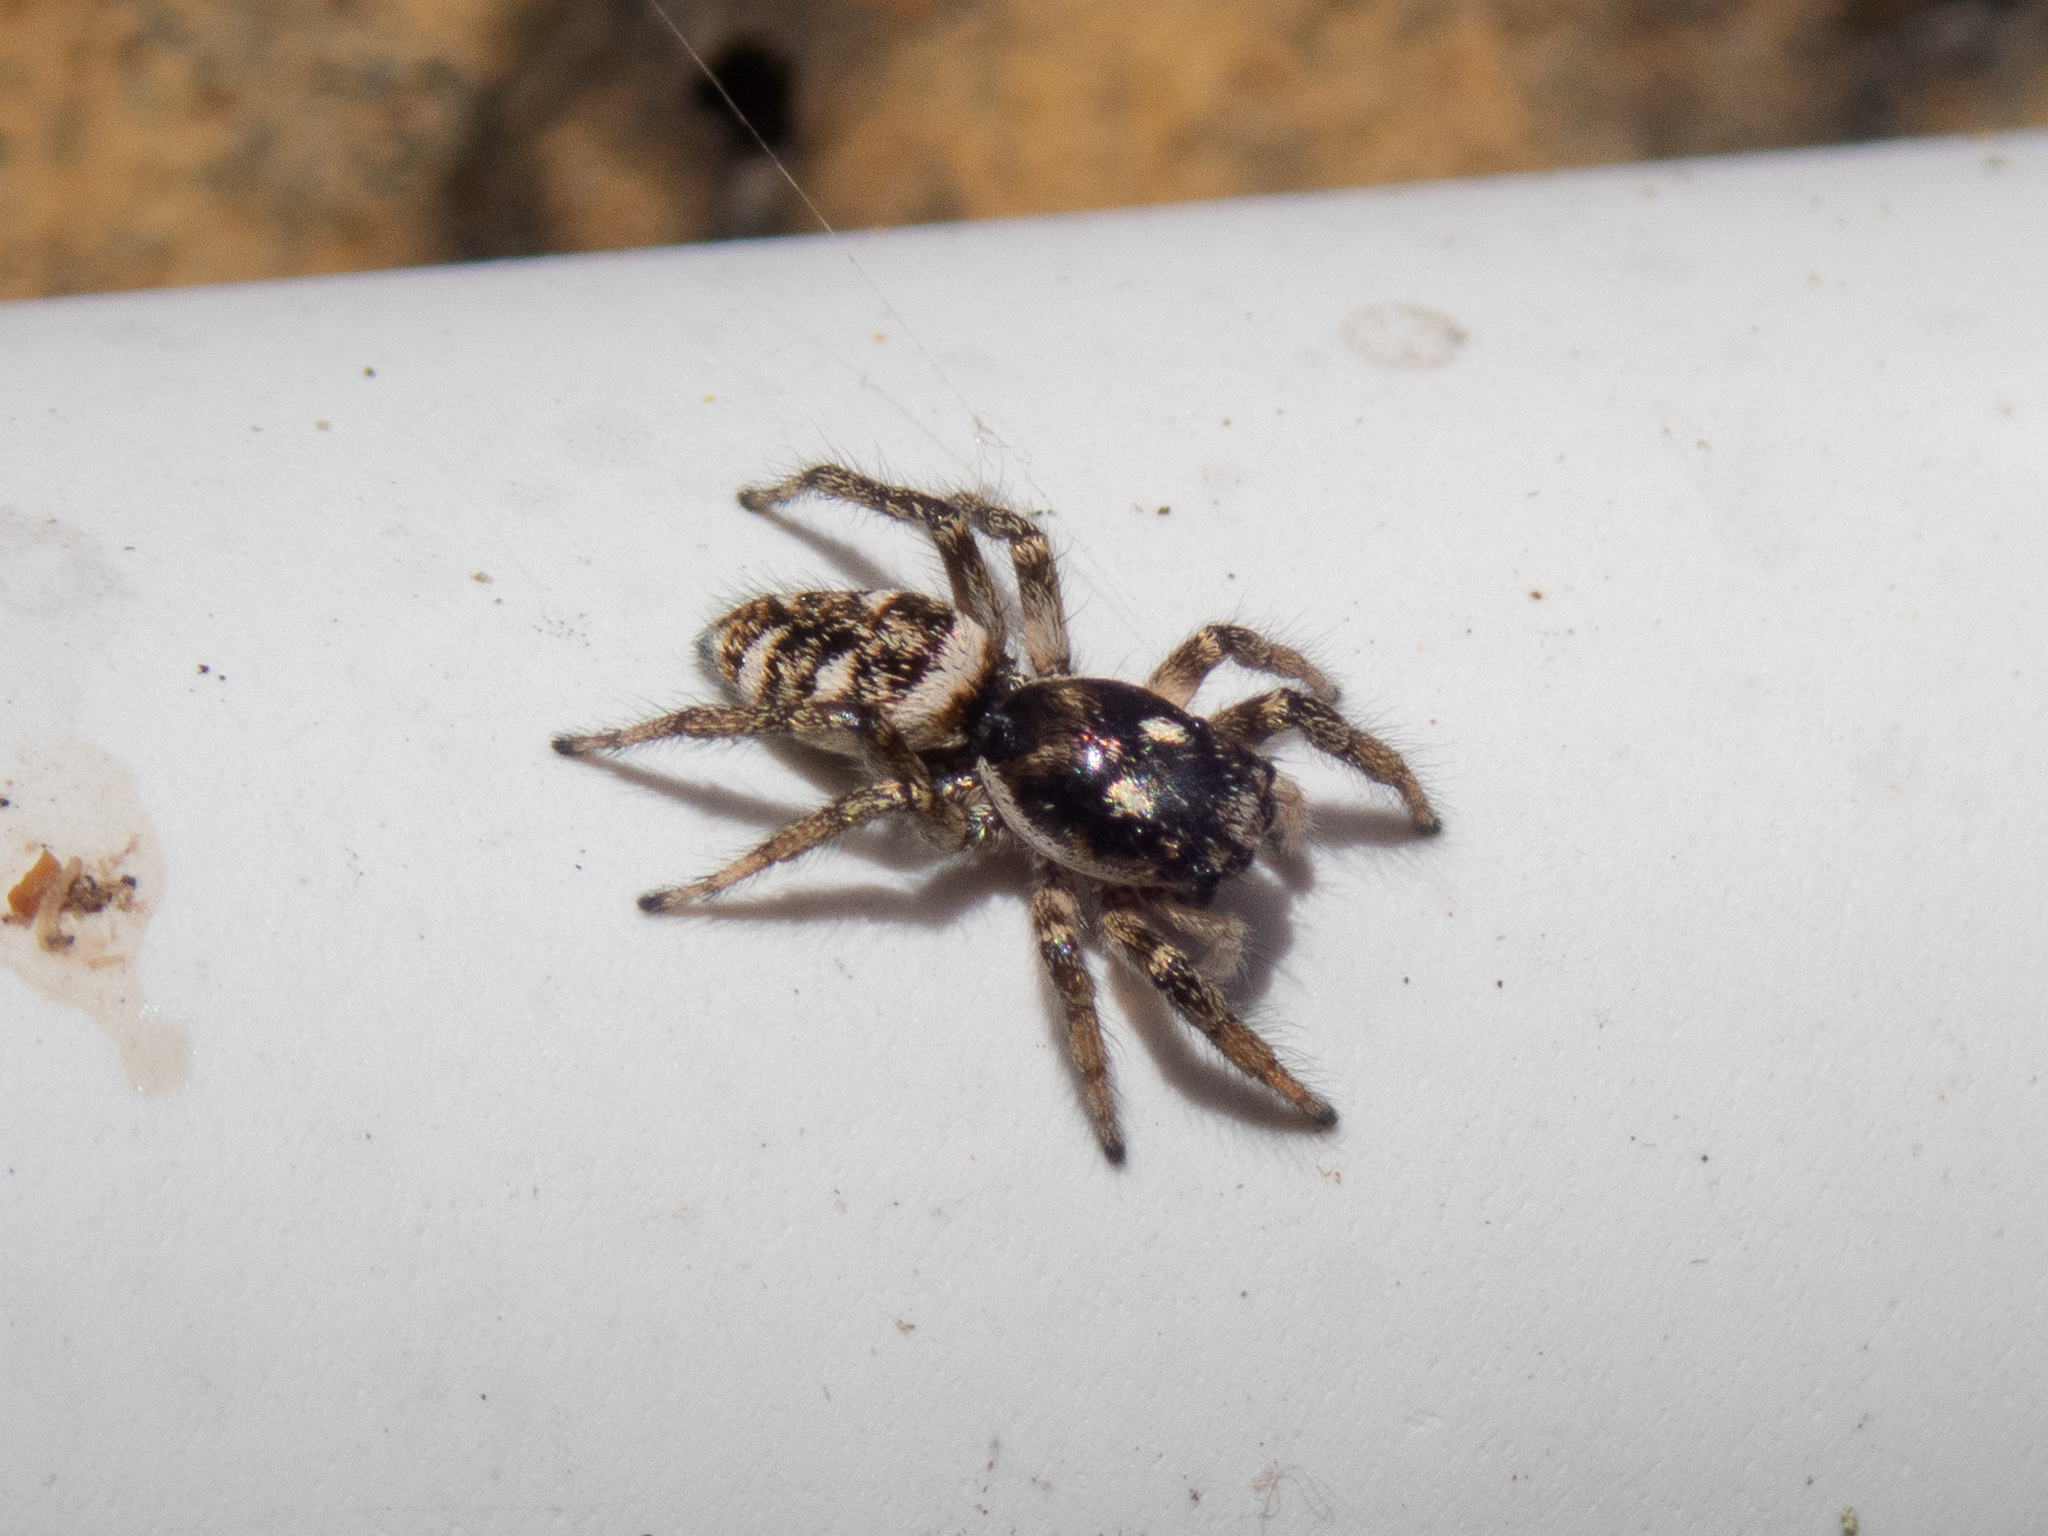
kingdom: Animalia
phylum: Arthropoda
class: Arachnida
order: Araneae
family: Salticidae
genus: Salticus
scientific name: Salticus scenicus
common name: Zebra jumper
